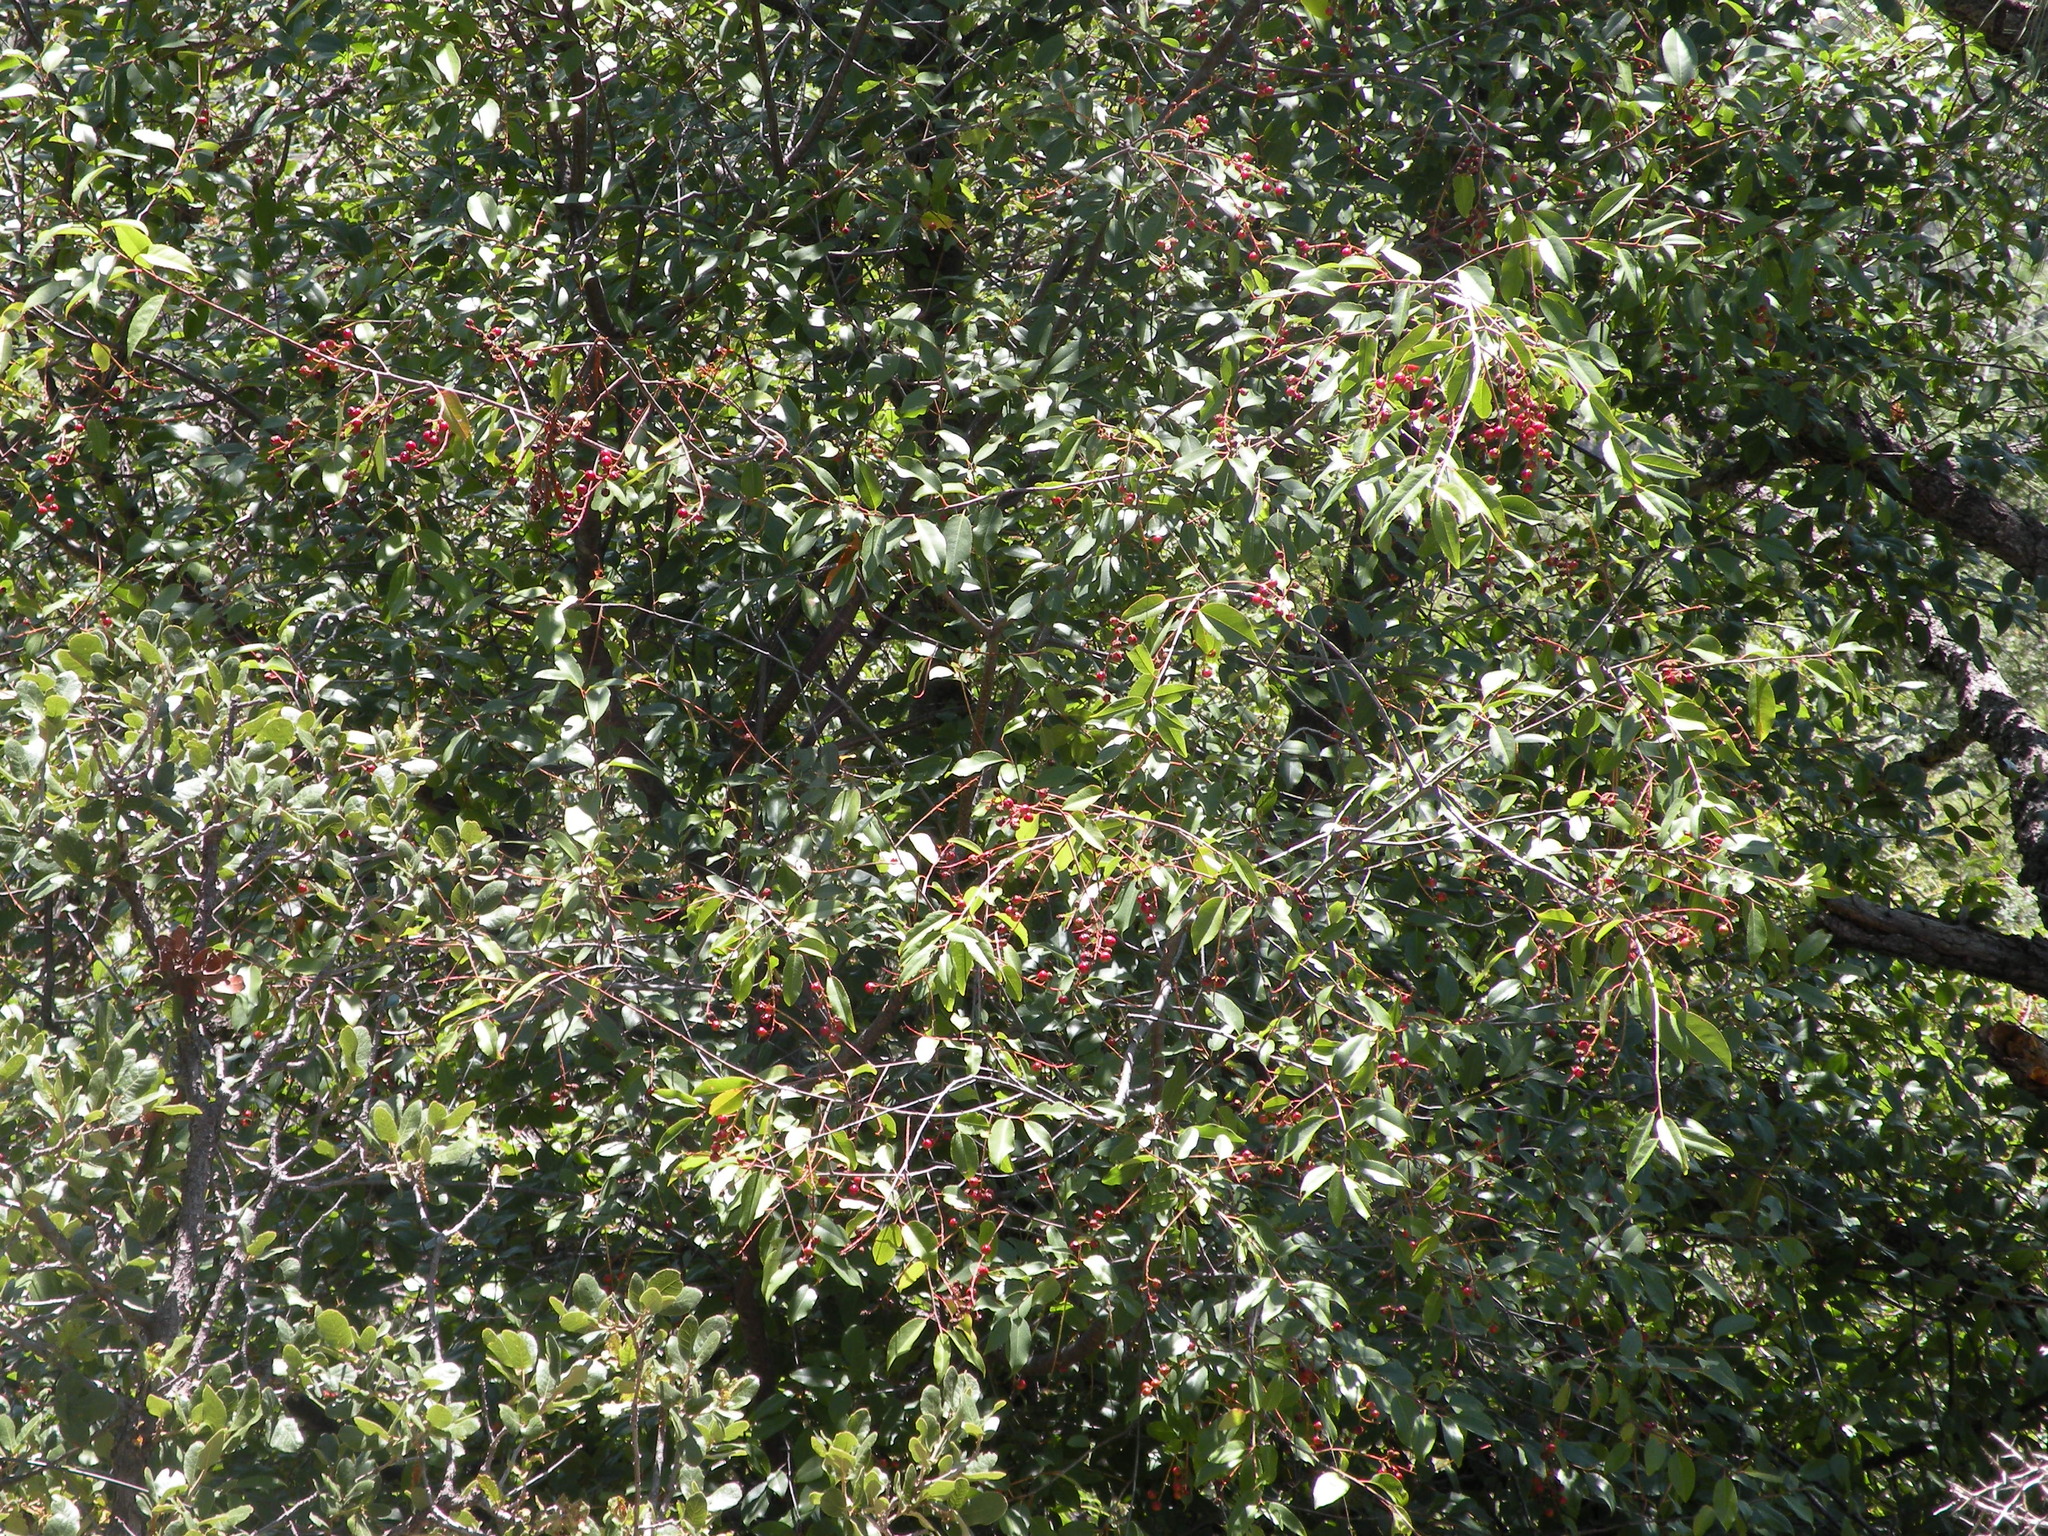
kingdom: Plantae
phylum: Tracheophyta
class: Magnoliopsida
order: Rosales
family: Rosaceae
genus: Prunus
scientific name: Prunus serotina
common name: Black cherry
